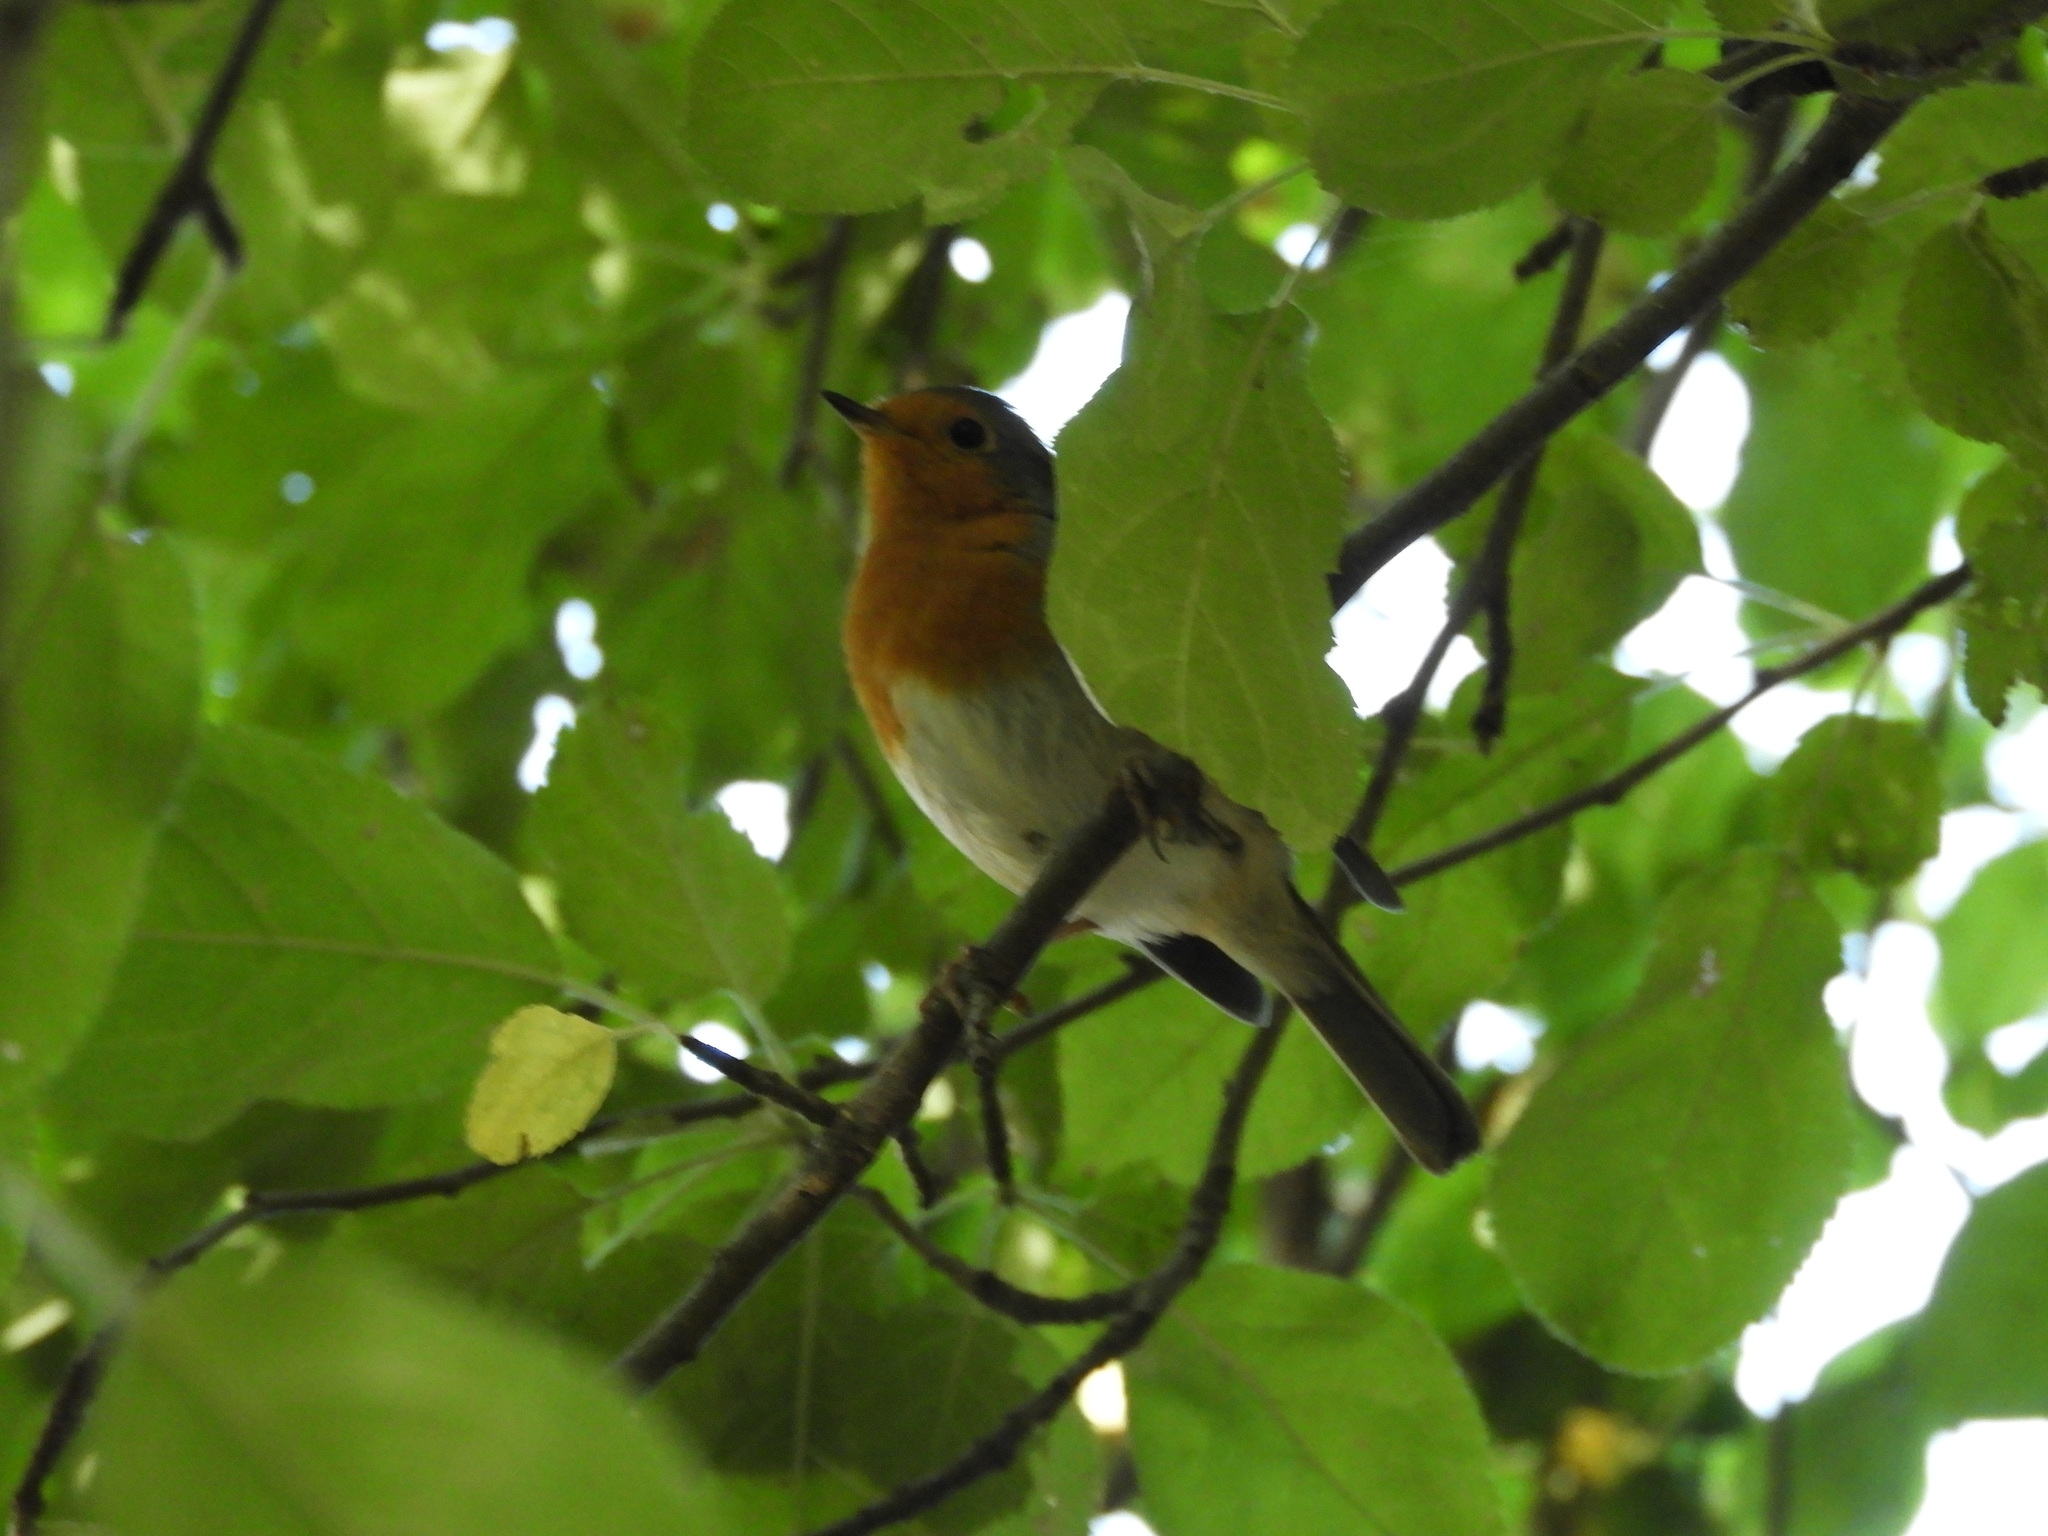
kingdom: Animalia
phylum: Chordata
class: Aves
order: Passeriformes
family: Muscicapidae
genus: Erithacus
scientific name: Erithacus rubecula
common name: European robin
